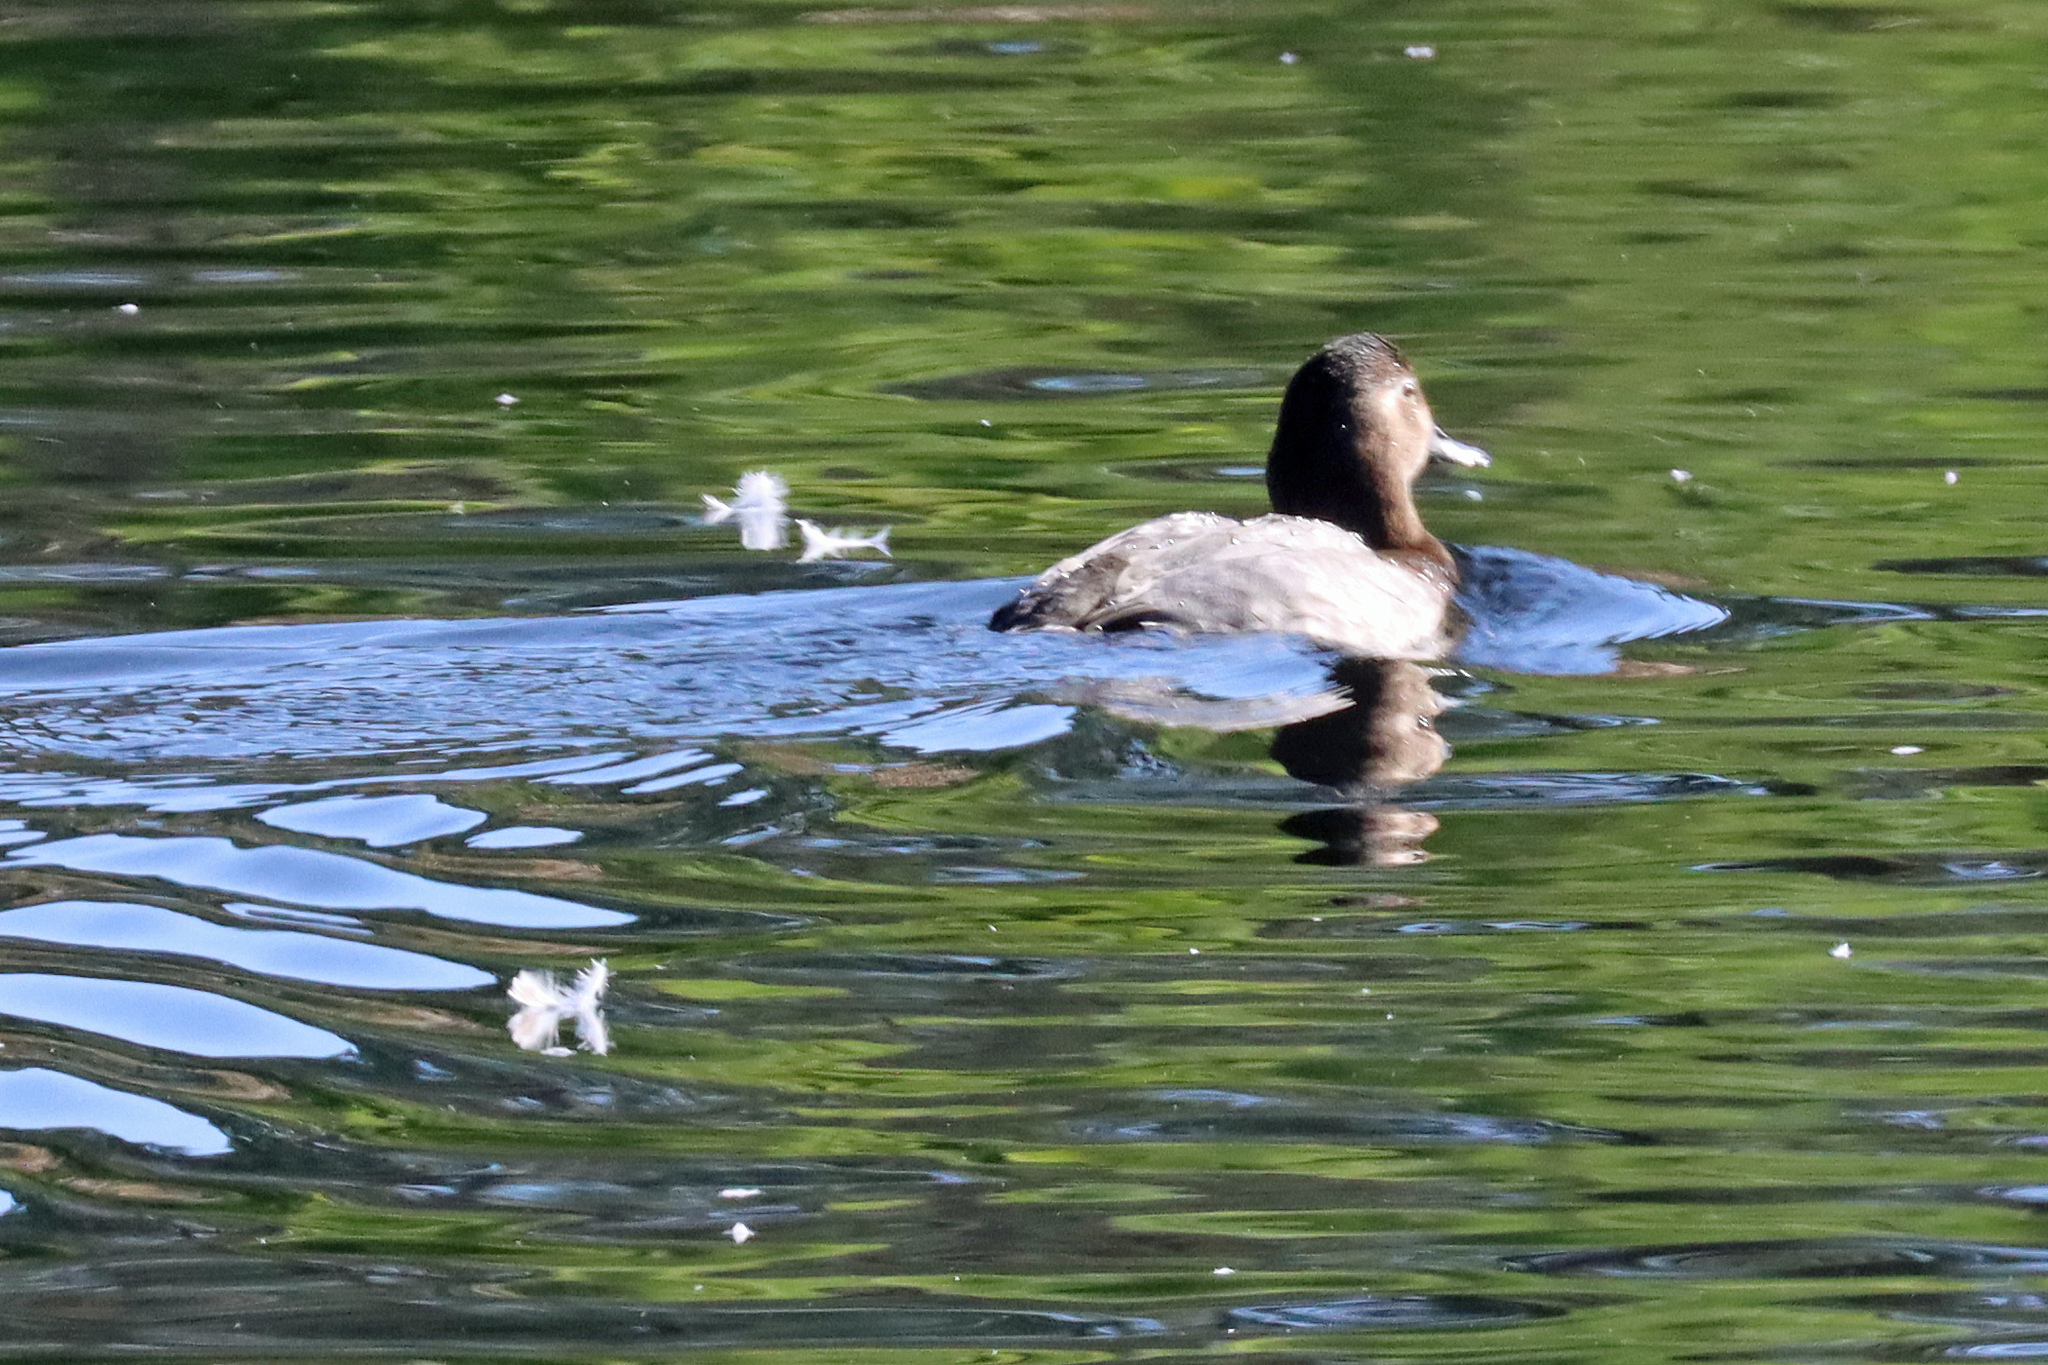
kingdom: Animalia
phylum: Chordata
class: Aves
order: Anseriformes
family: Anatidae
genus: Aythya
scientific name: Aythya ferina
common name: Common pochard
